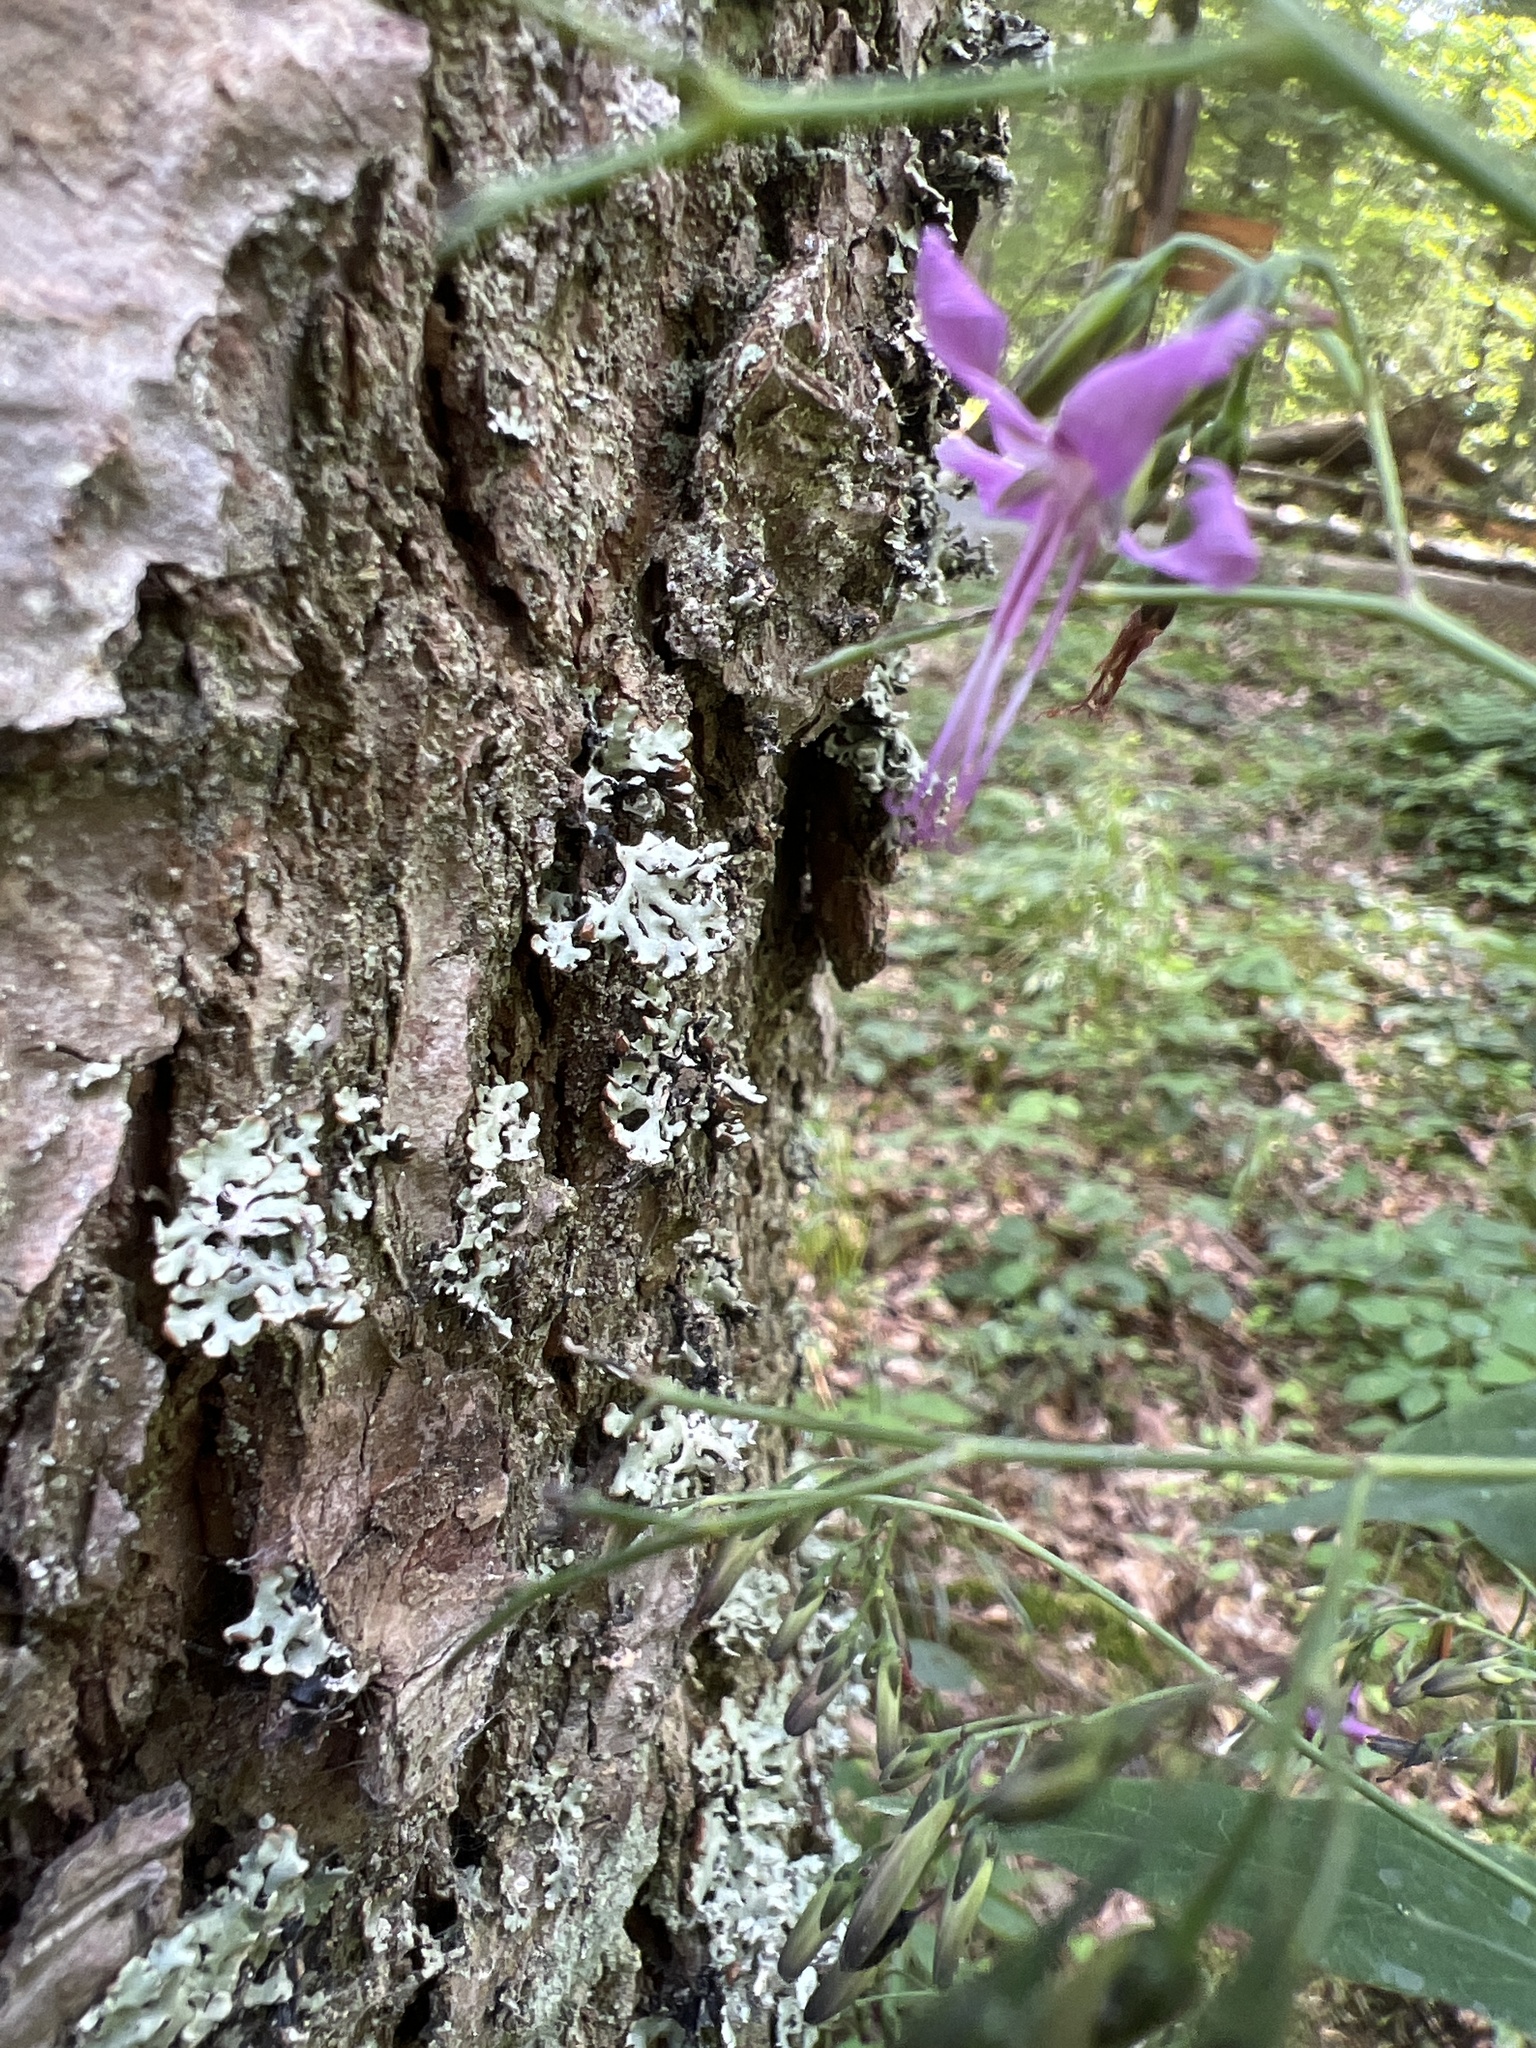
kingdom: Plantae
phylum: Tracheophyta
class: Magnoliopsida
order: Asterales
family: Asteraceae
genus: Prenanthes
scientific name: Prenanthes purpurea
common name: Purple lettuce
